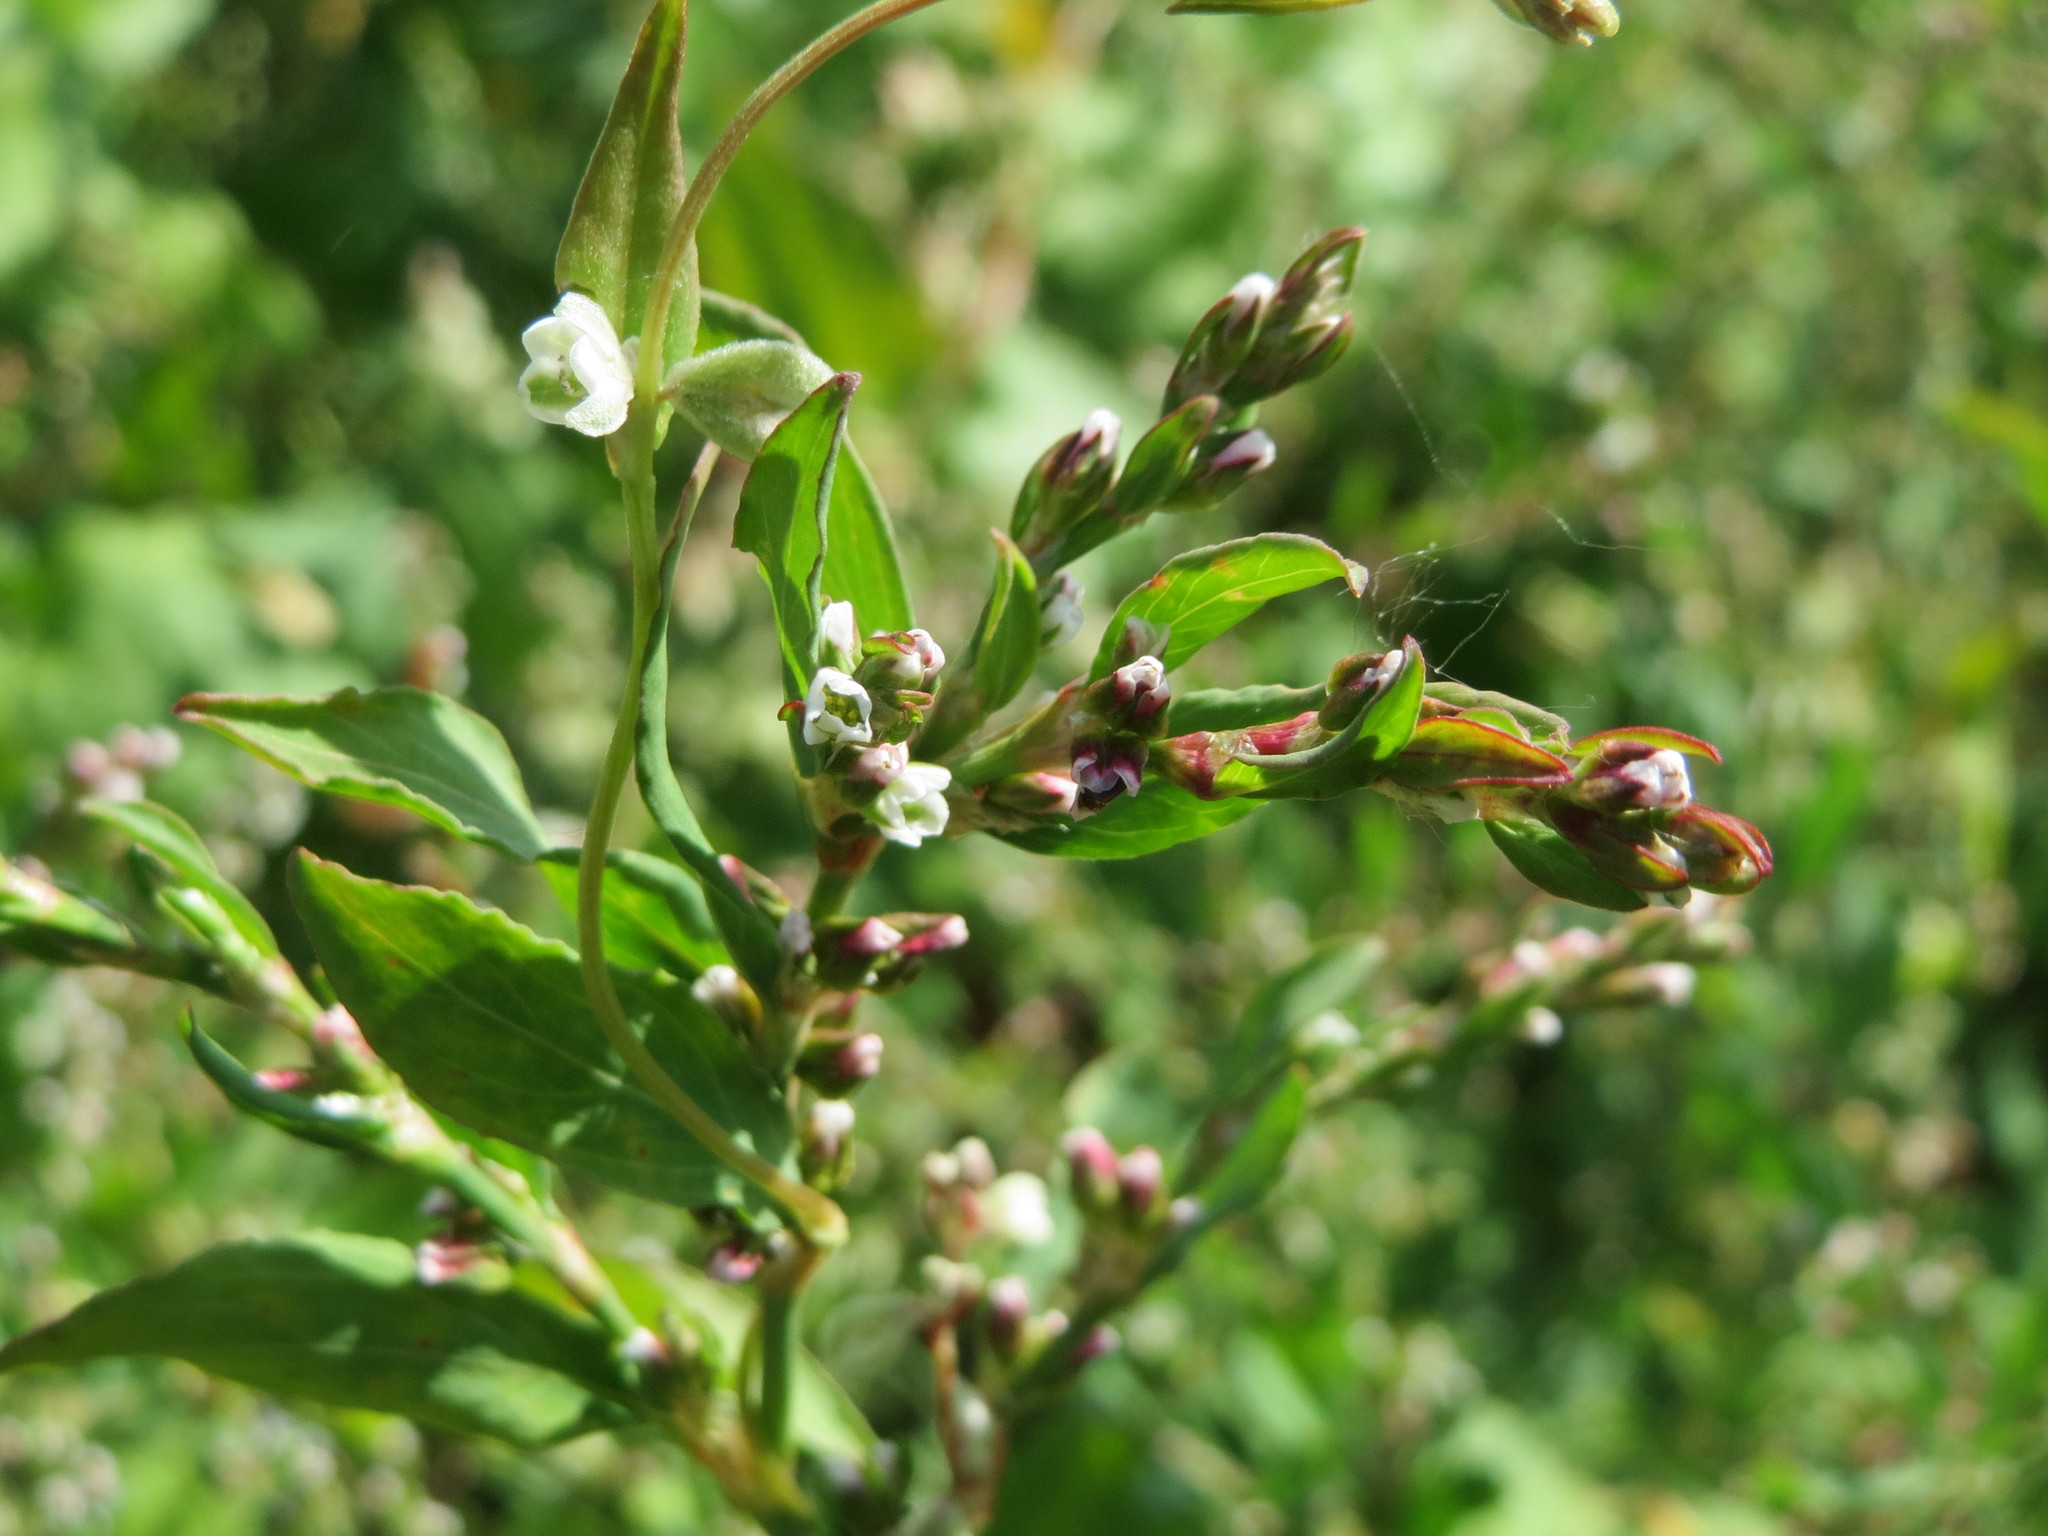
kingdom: Plantae
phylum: Tracheophyta
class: Magnoliopsida
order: Caryophyllales
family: Polygonaceae
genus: Polygonum
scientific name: Polygonum aviculare
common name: Prostrate knotweed
